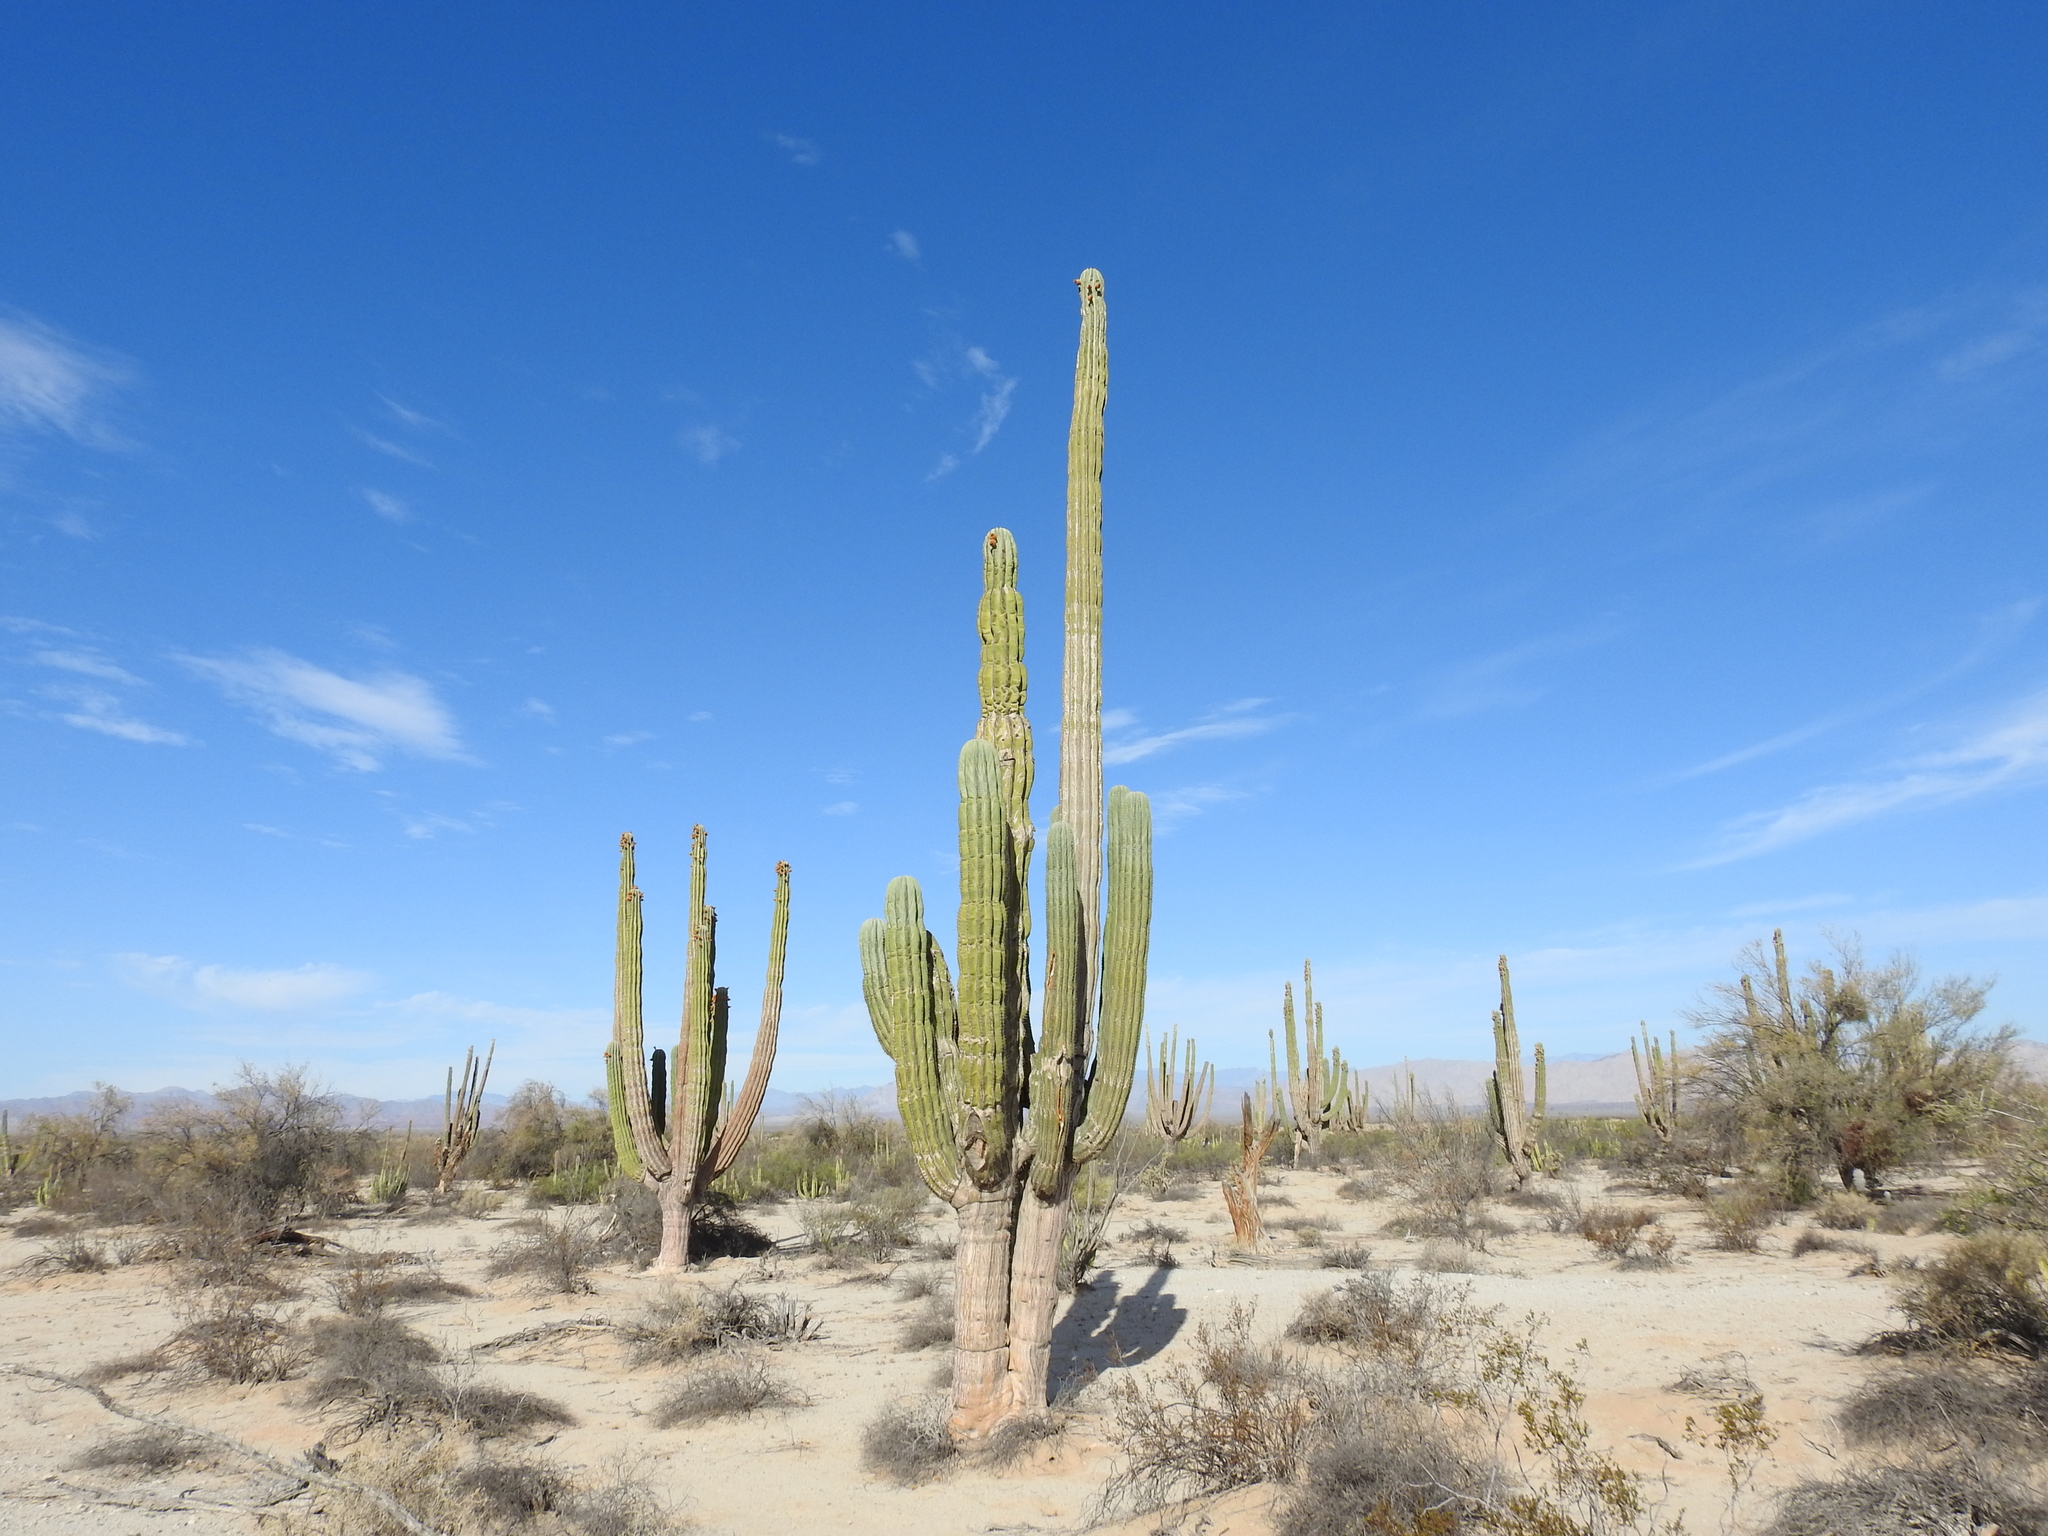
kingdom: Plantae
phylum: Tracheophyta
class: Magnoliopsida
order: Caryophyllales
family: Cactaceae
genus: Pachycereus
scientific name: Pachycereus pringlei
